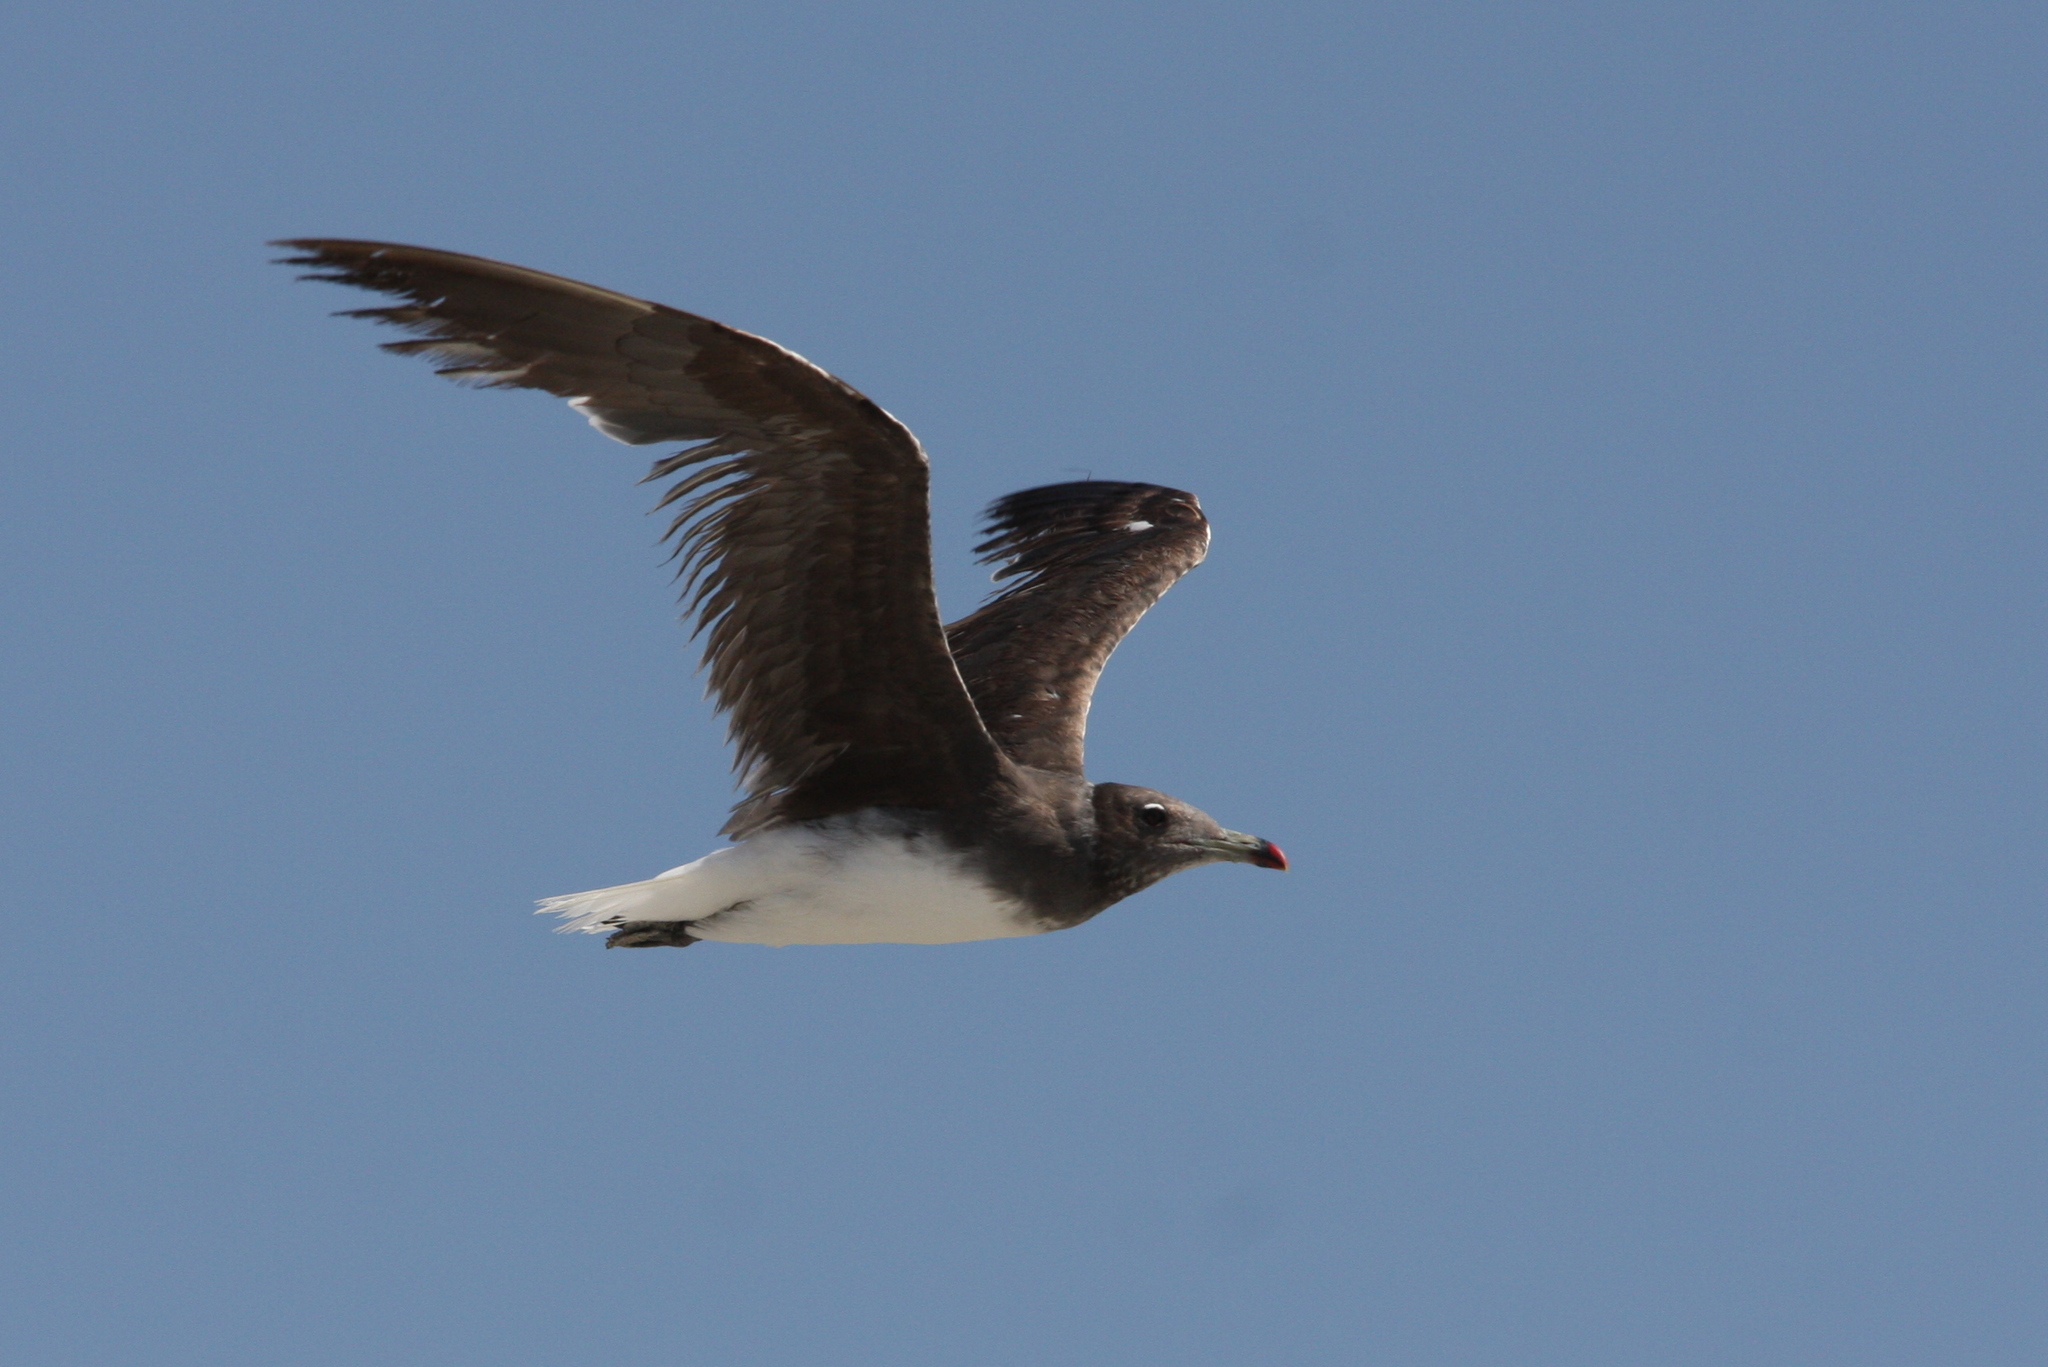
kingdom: Animalia
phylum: Chordata
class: Aves
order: Charadriiformes
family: Laridae
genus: Ichthyaetus
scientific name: Ichthyaetus hemprichii
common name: Sooty gull
